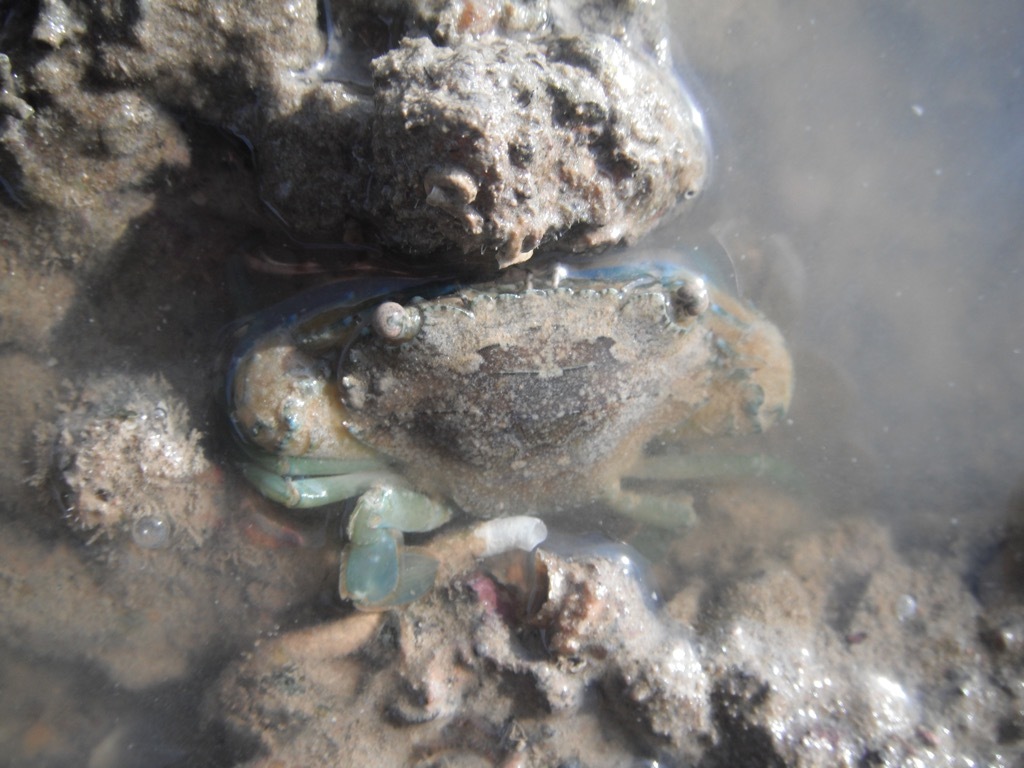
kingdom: Animalia
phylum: Arthropoda
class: Malacostraca
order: Decapoda
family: Portunidae
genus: Thalamita
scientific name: Thalamita crenata
